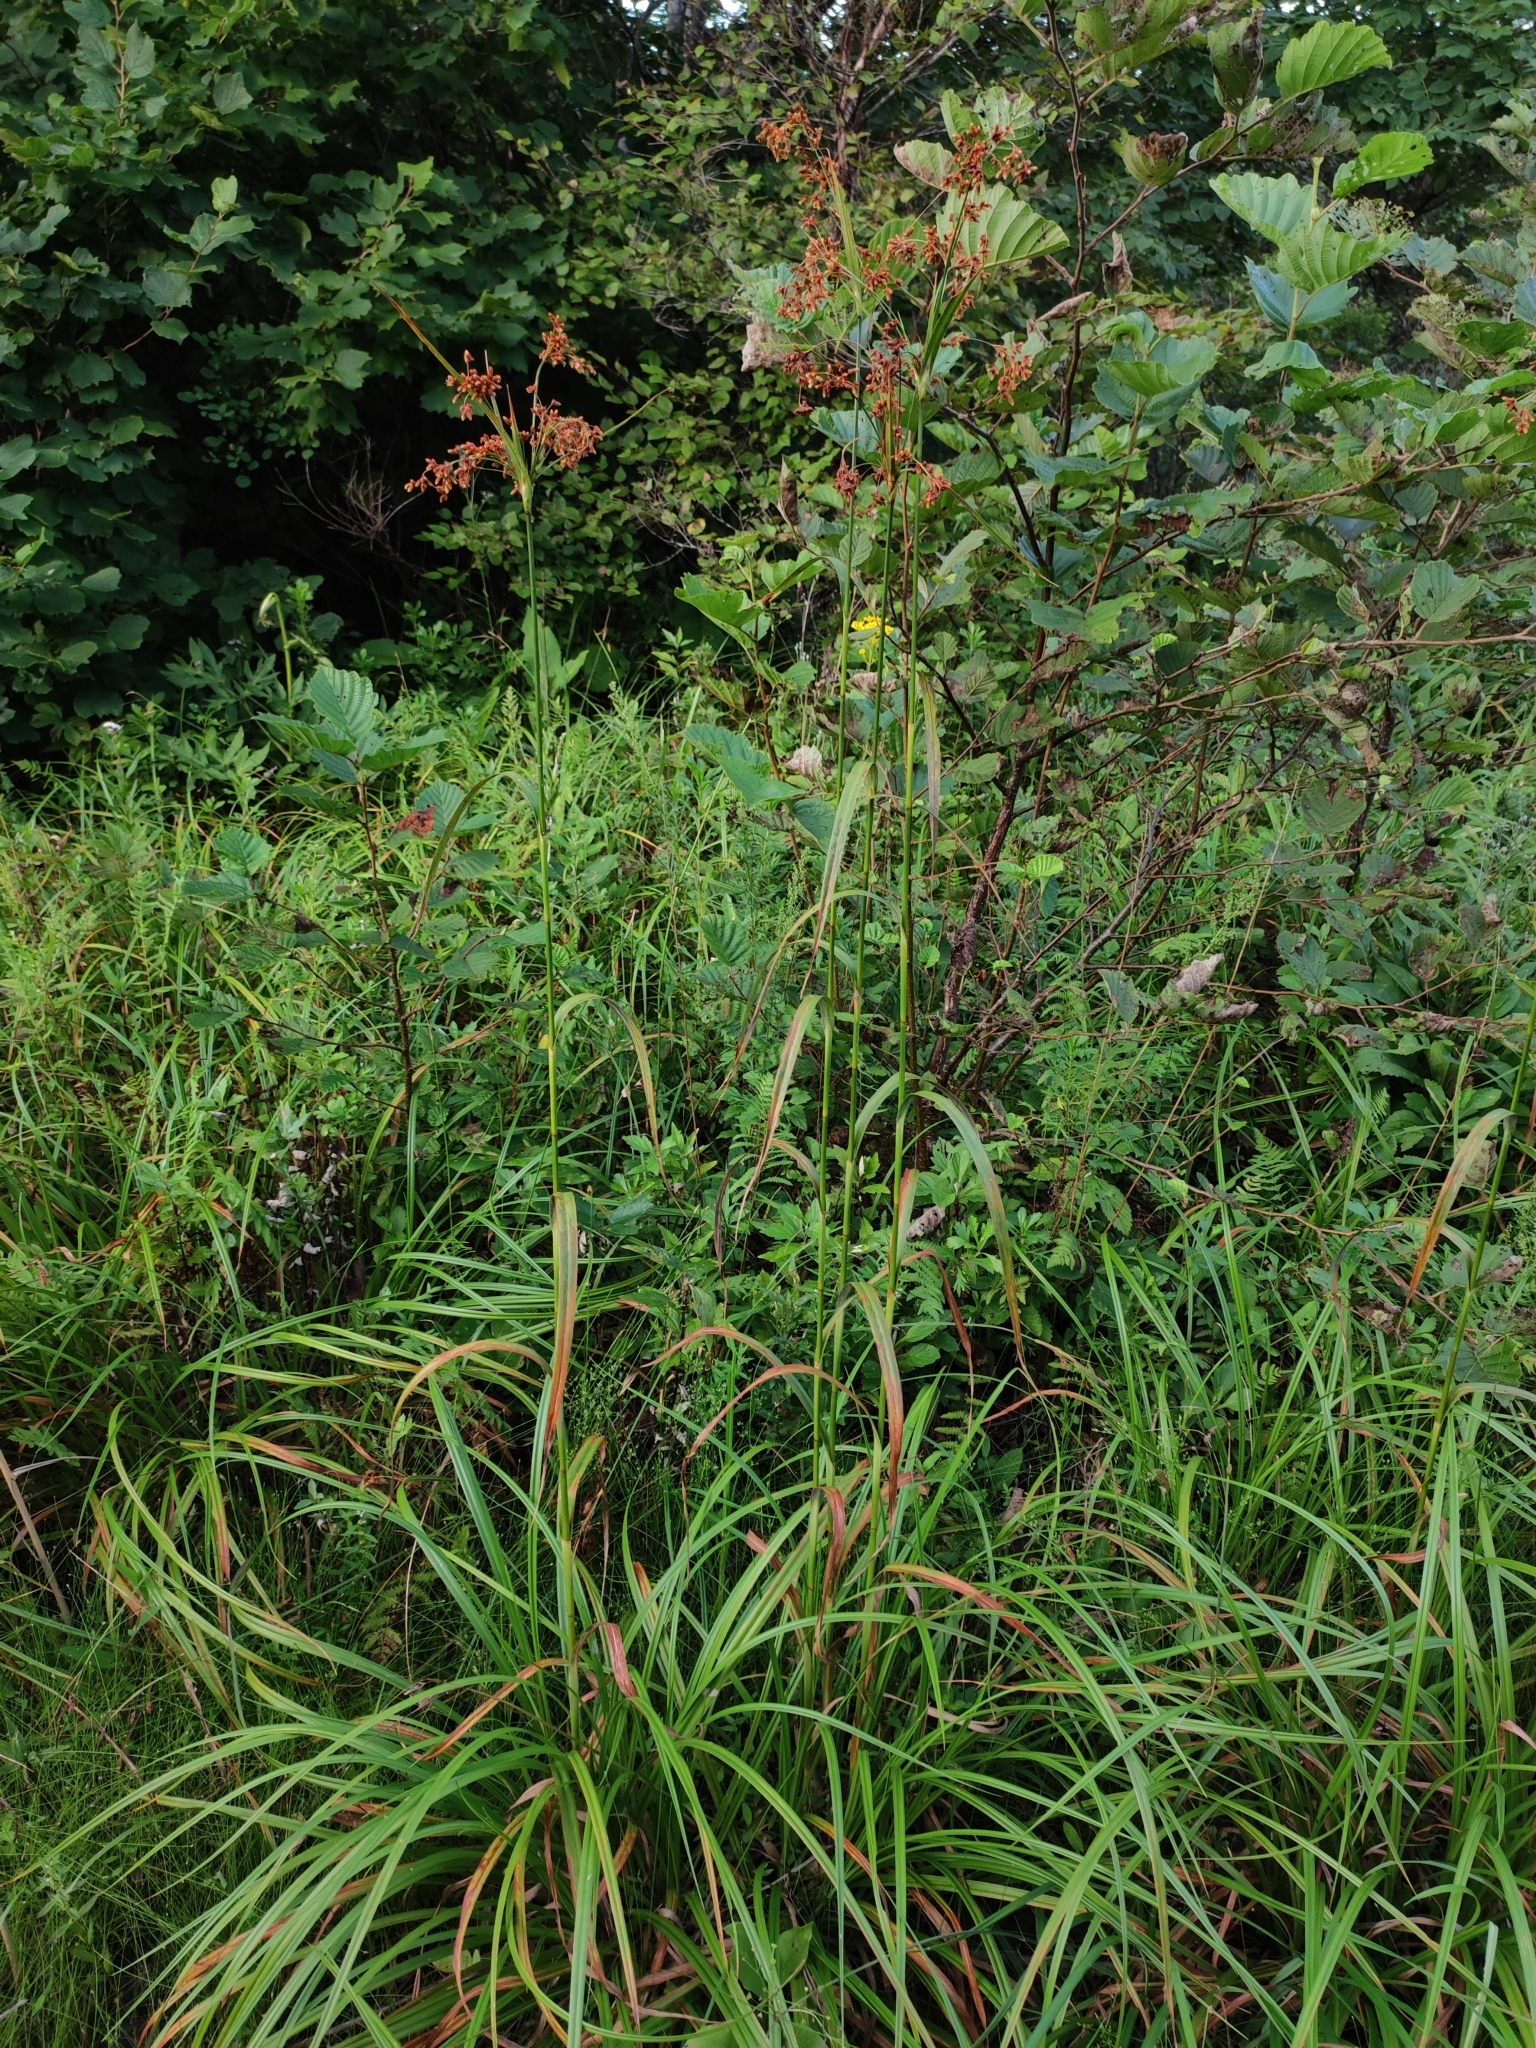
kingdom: Plantae
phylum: Tracheophyta
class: Liliopsida
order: Poales
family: Cyperaceae
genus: Scirpus
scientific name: Scirpus lushanensis
